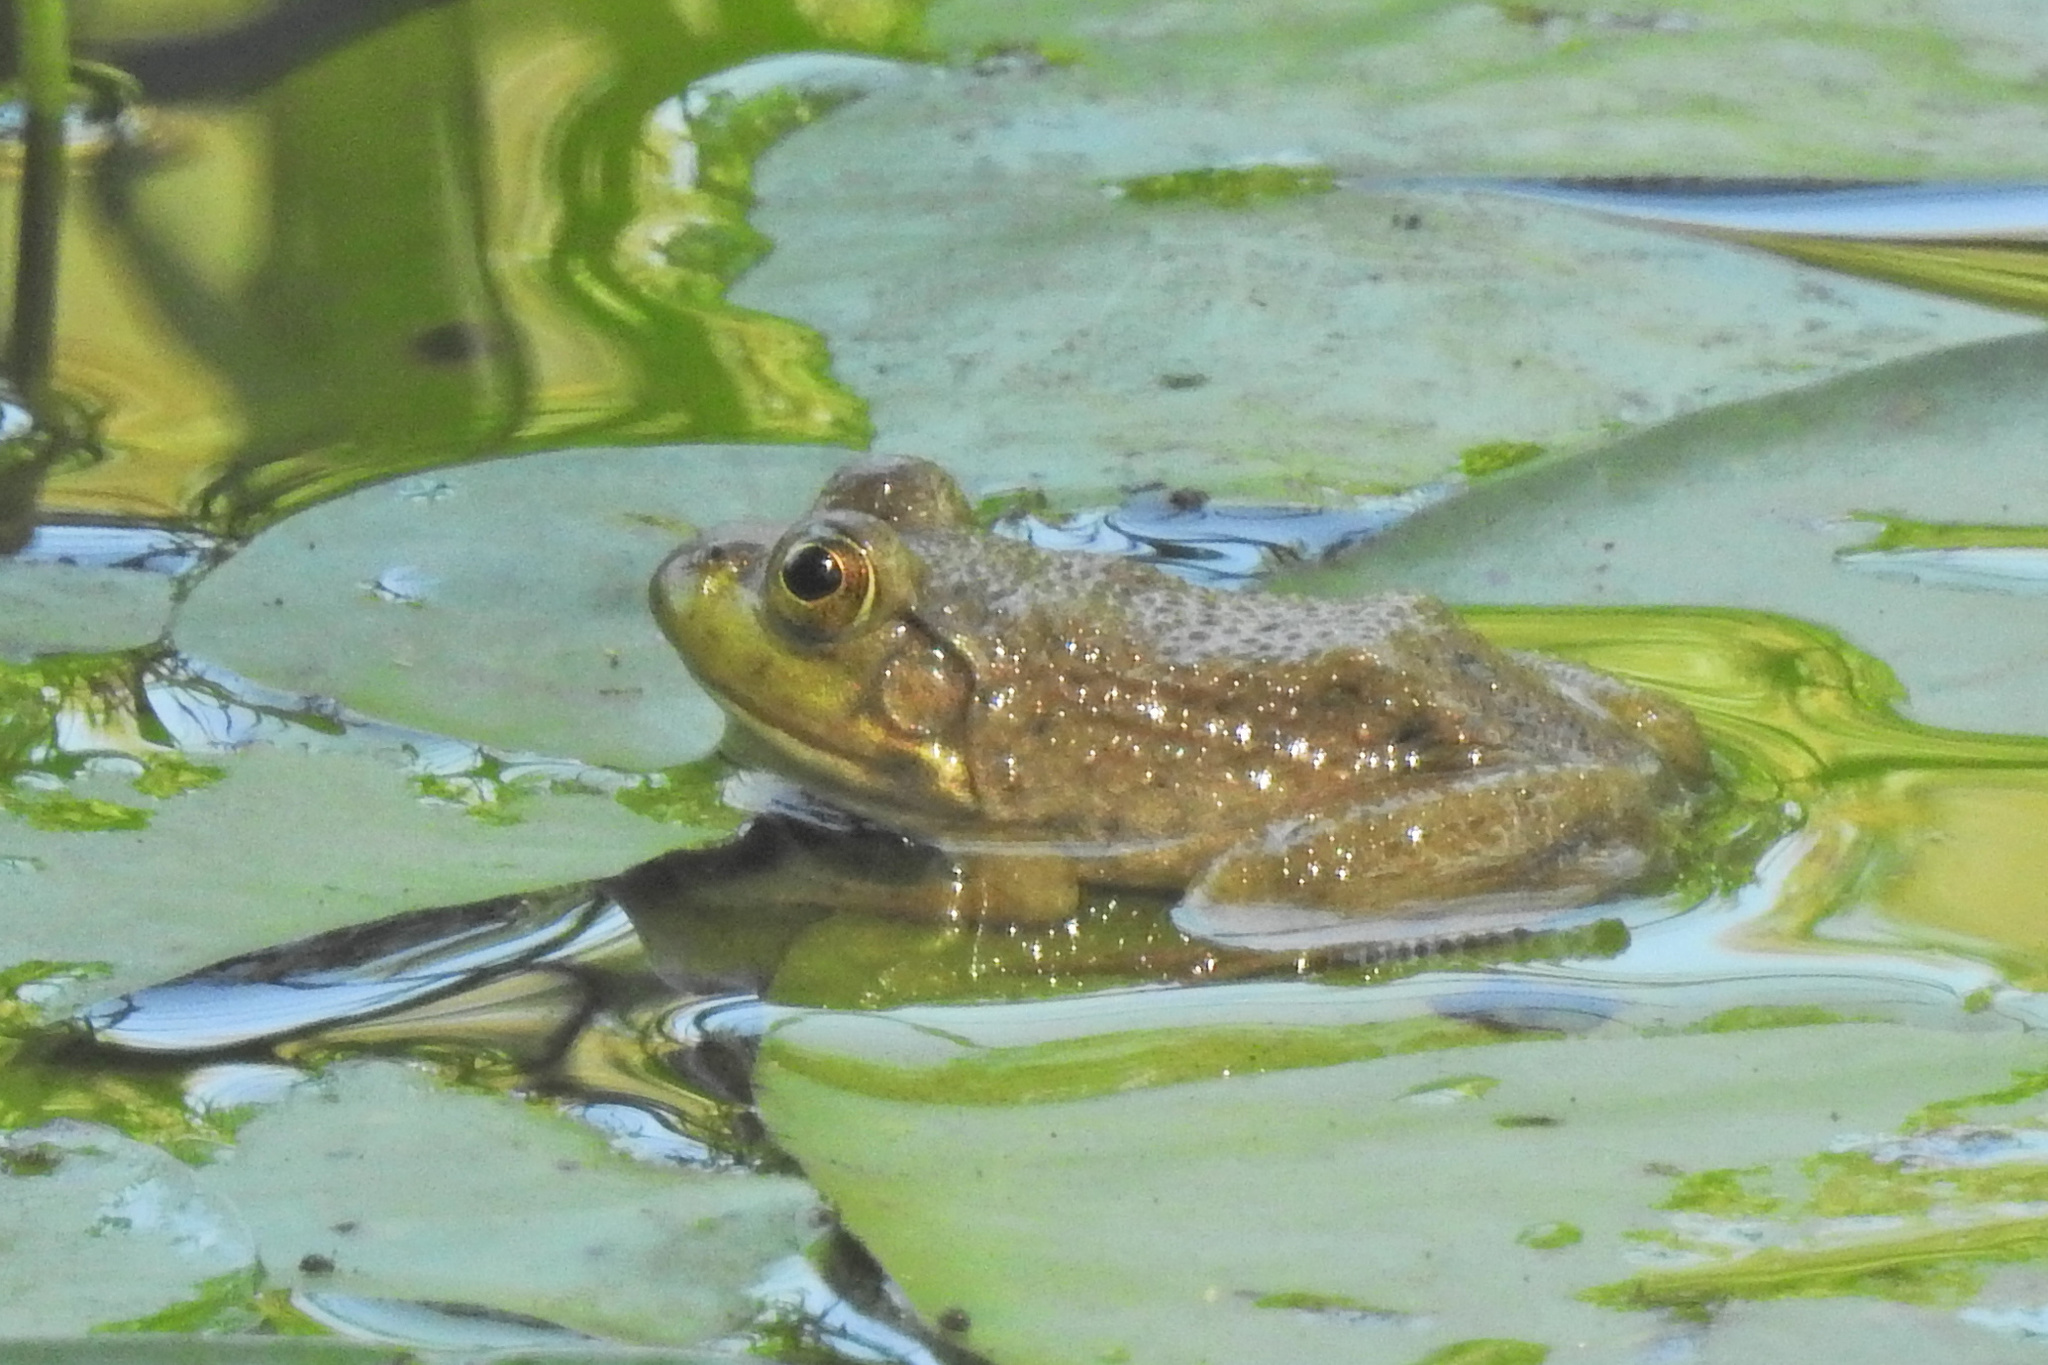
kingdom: Animalia
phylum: Chordata
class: Amphibia
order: Anura
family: Ranidae
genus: Lithobates
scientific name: Lithobates catesbeianus
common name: American bullfrog
